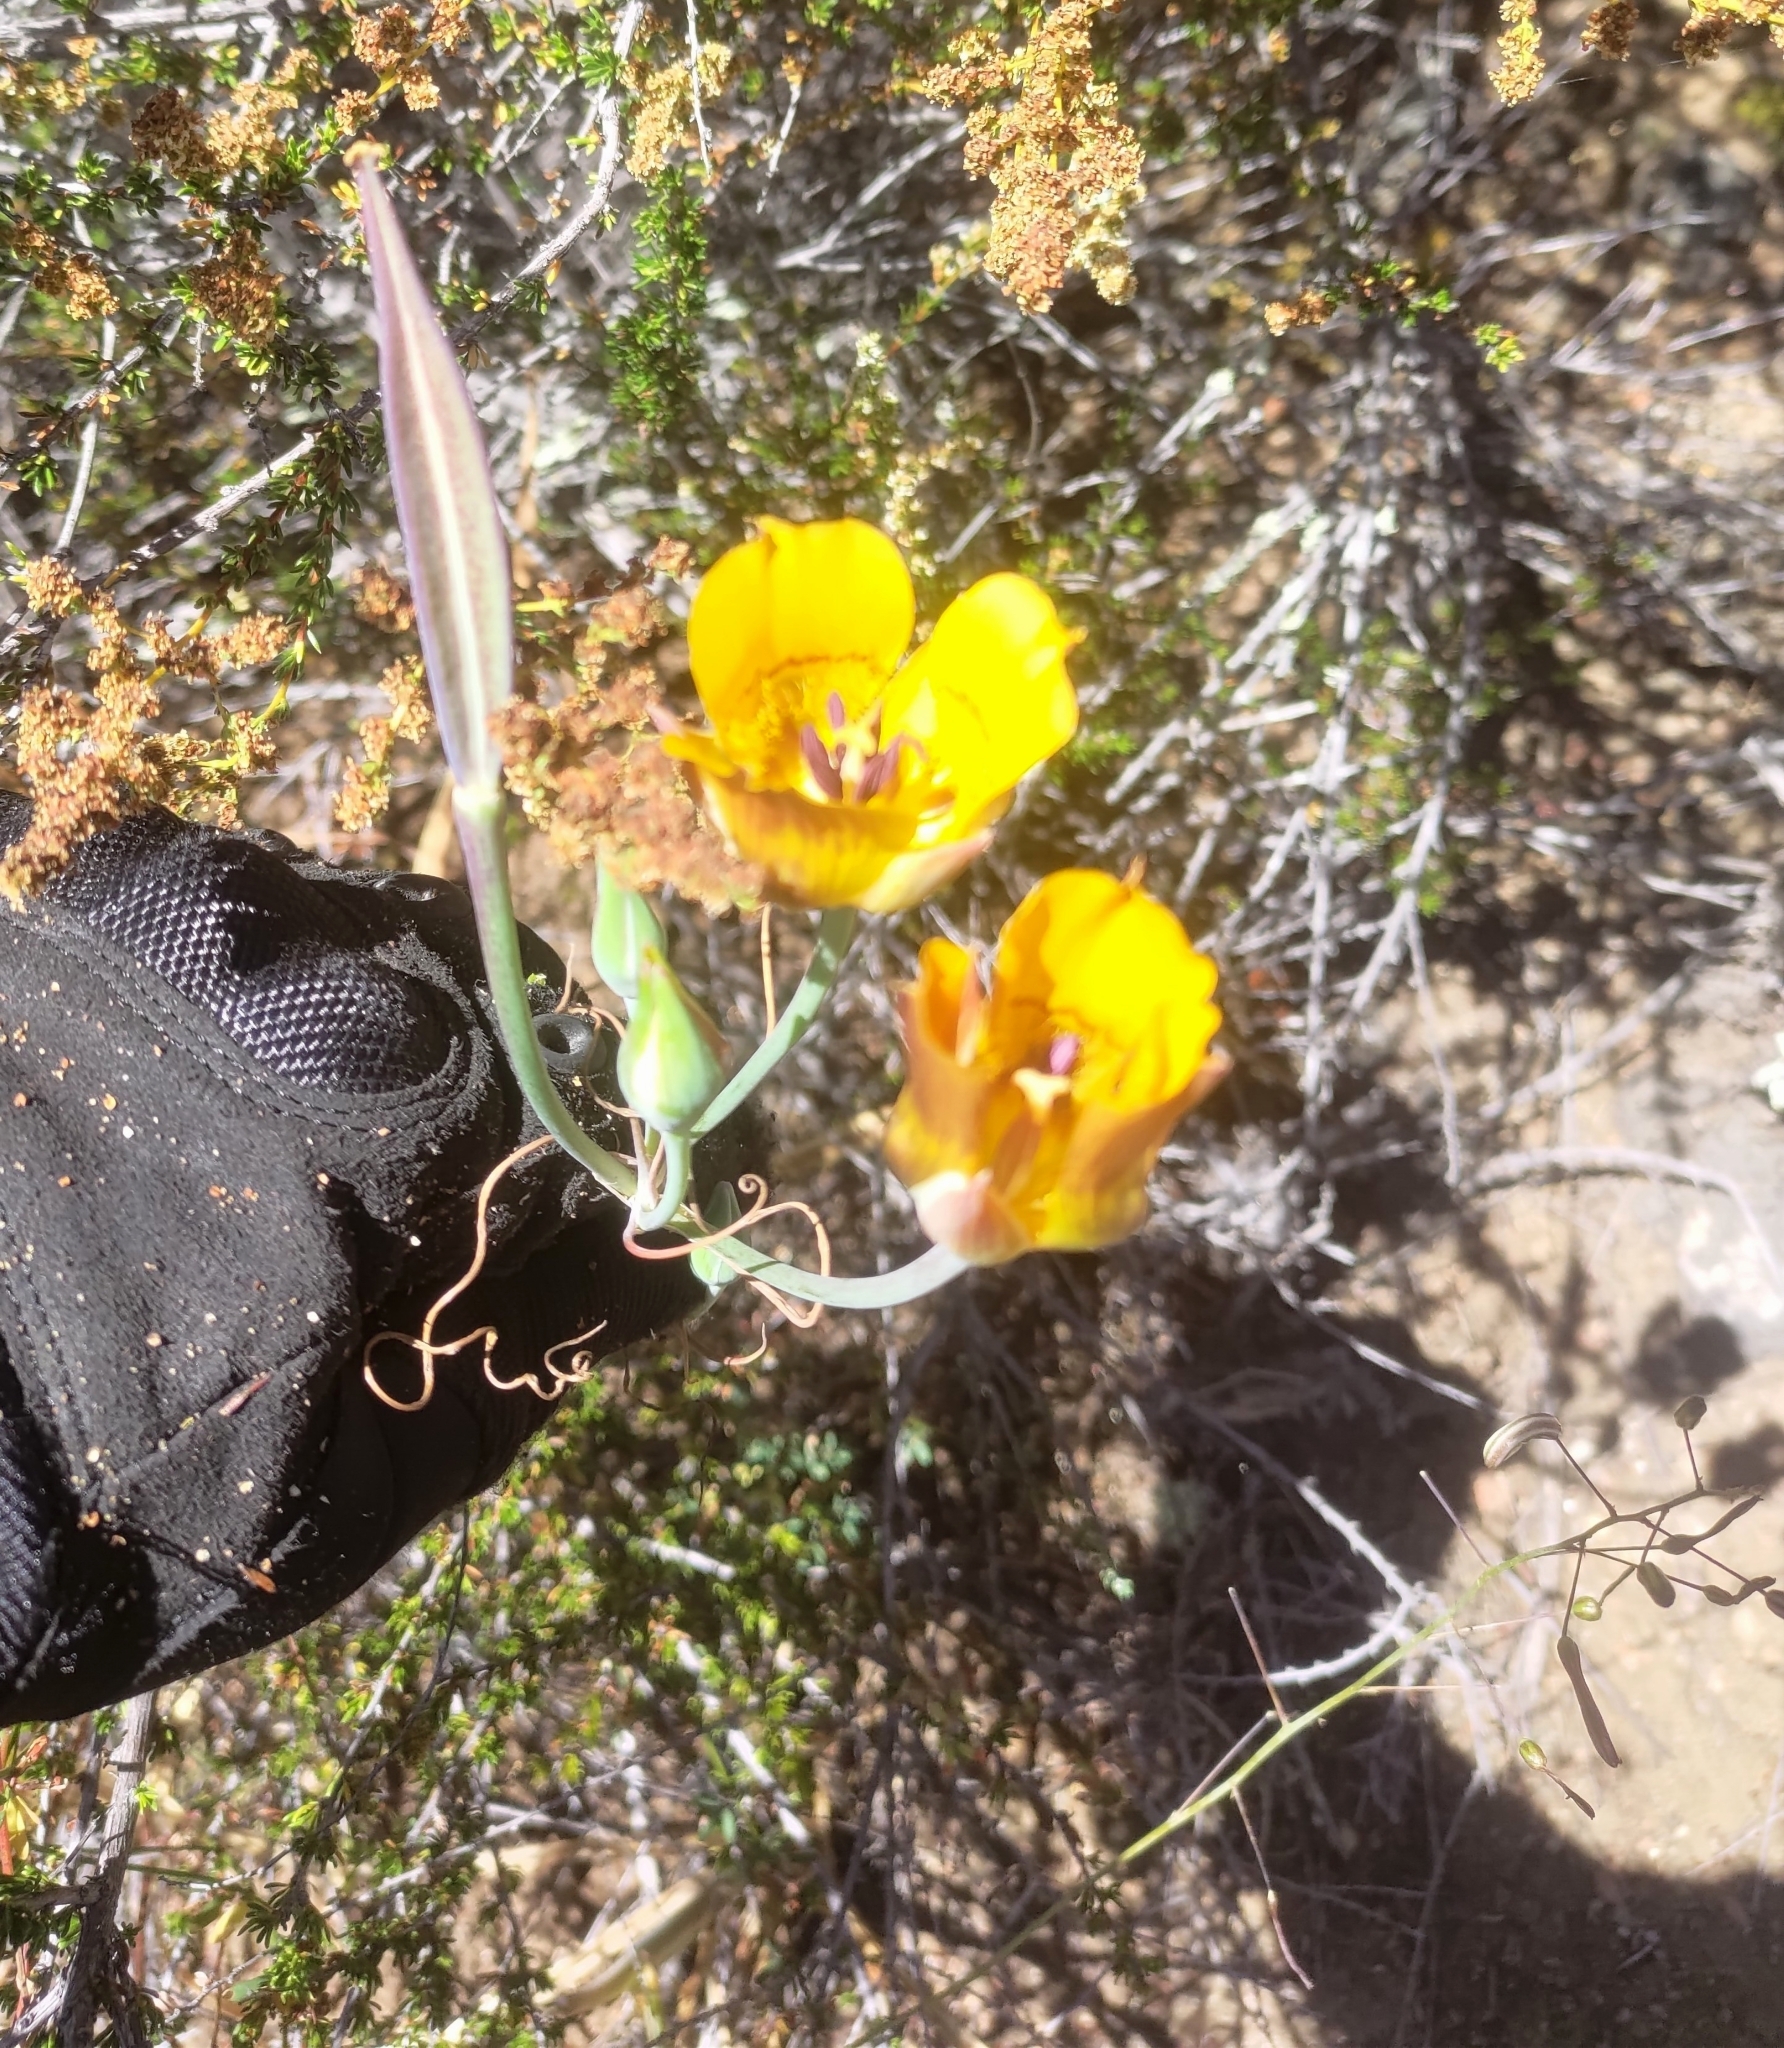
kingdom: Plantae
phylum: Tracheophyta
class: Liliopsida
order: Liliales
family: Liliaceae
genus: Calochortus
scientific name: Calochortus clavatus
